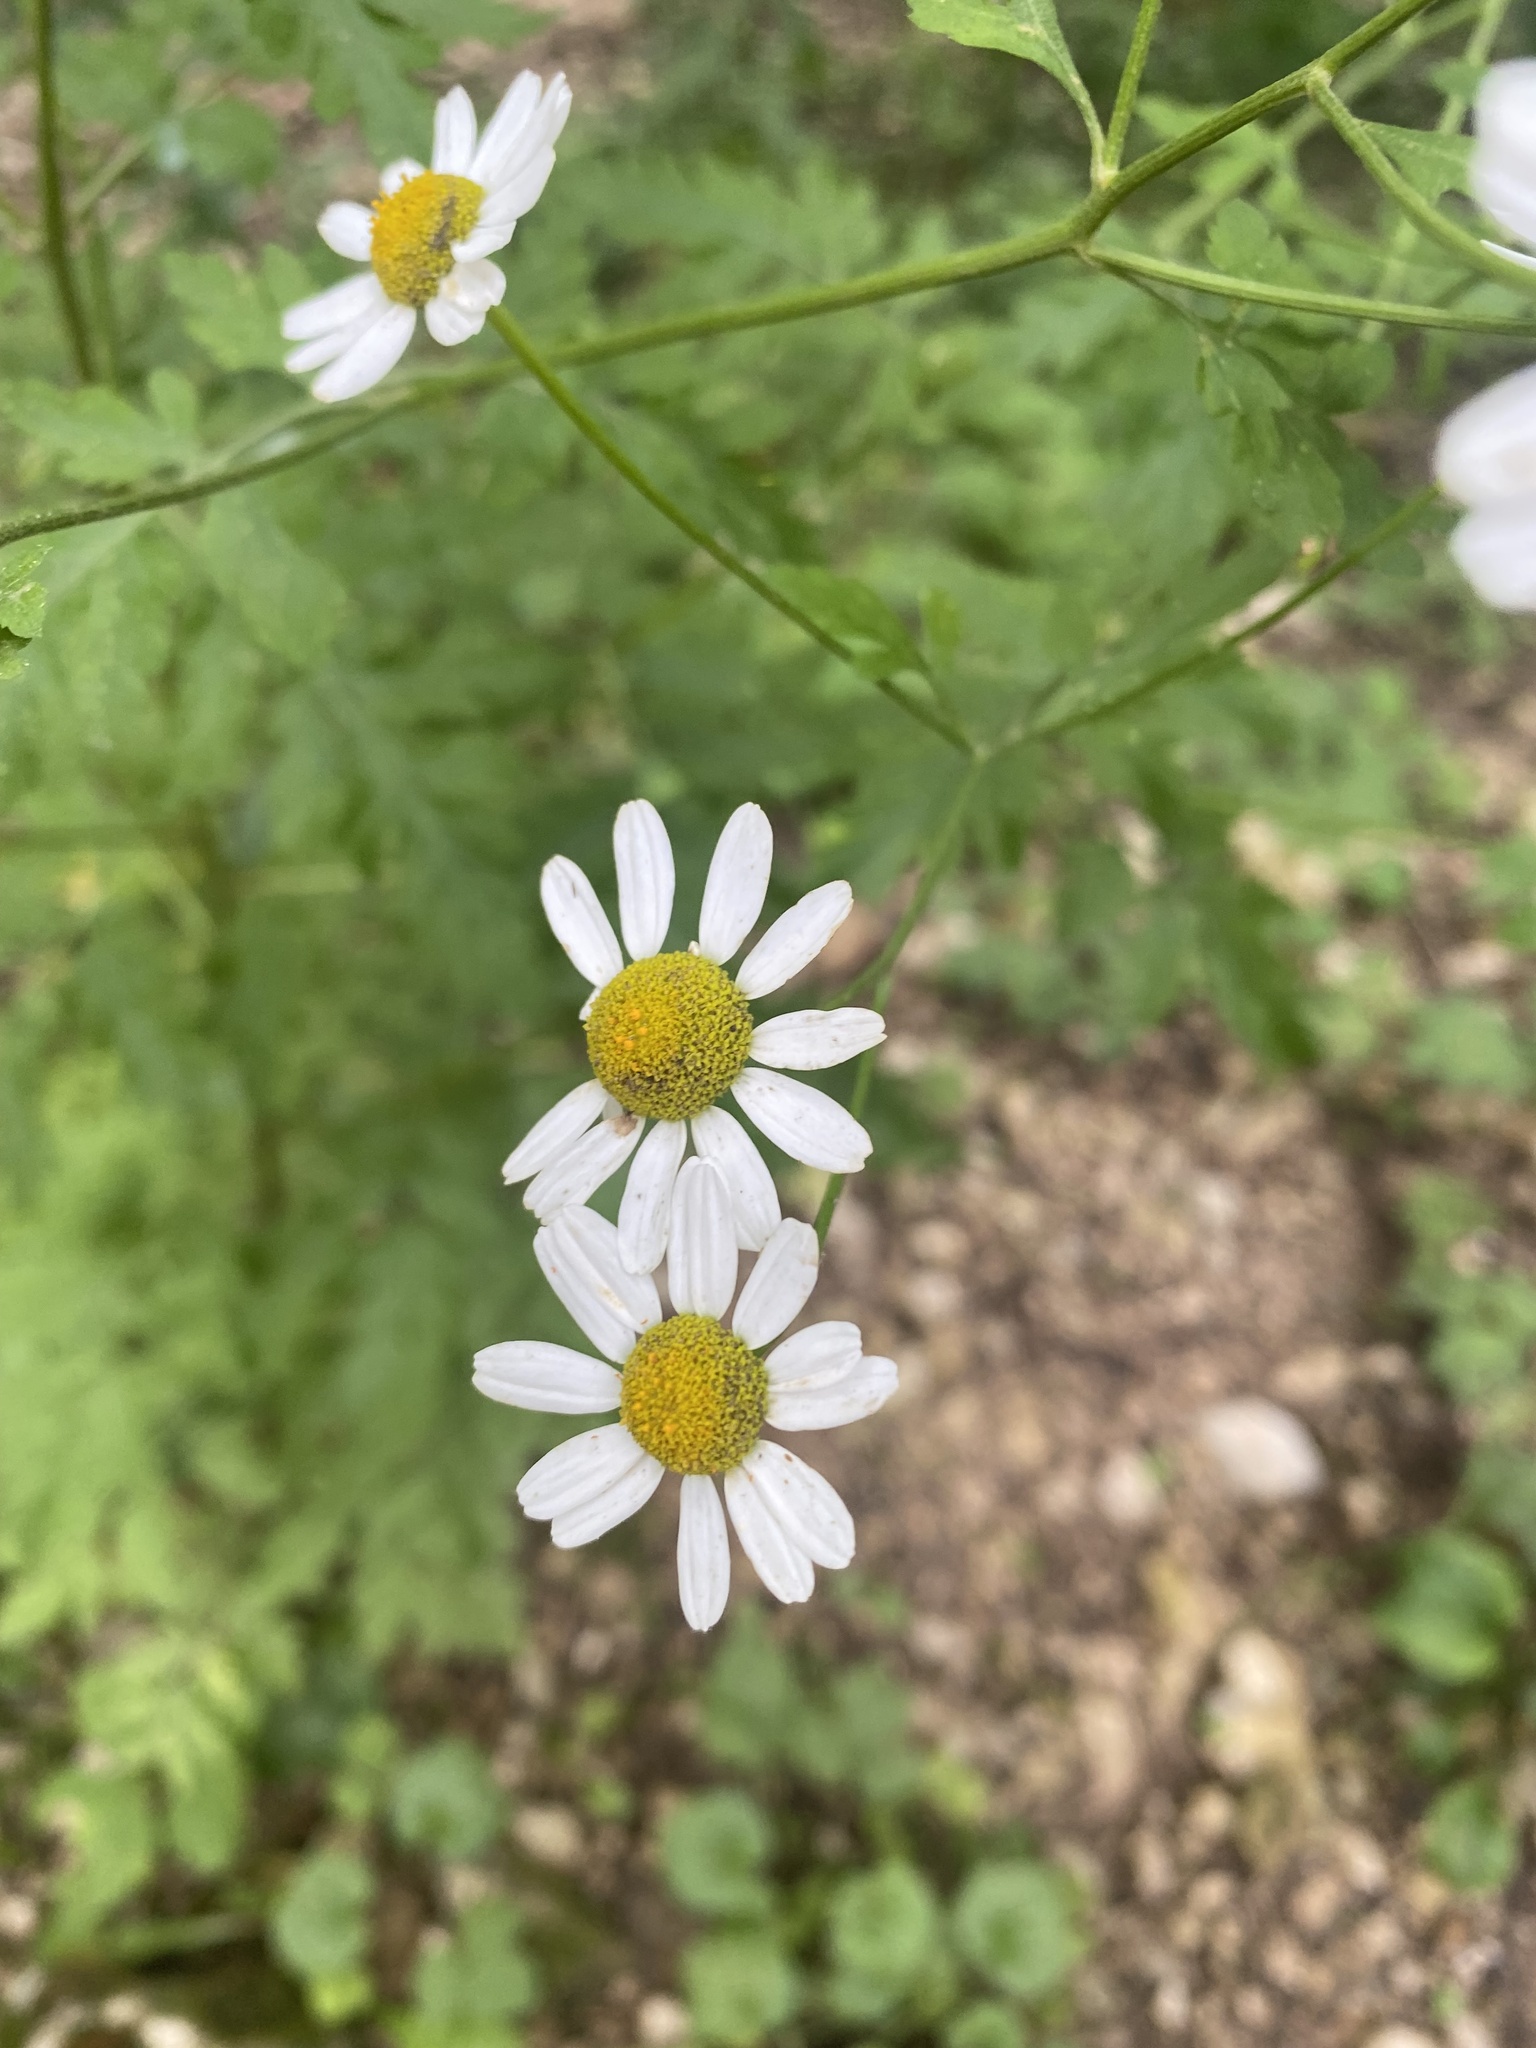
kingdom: Plantae
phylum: Tracheophyta
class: Magnoliopsida
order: Asterales
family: Asteraceae
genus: Tanacetum
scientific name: Tanacetum partheniifolium
